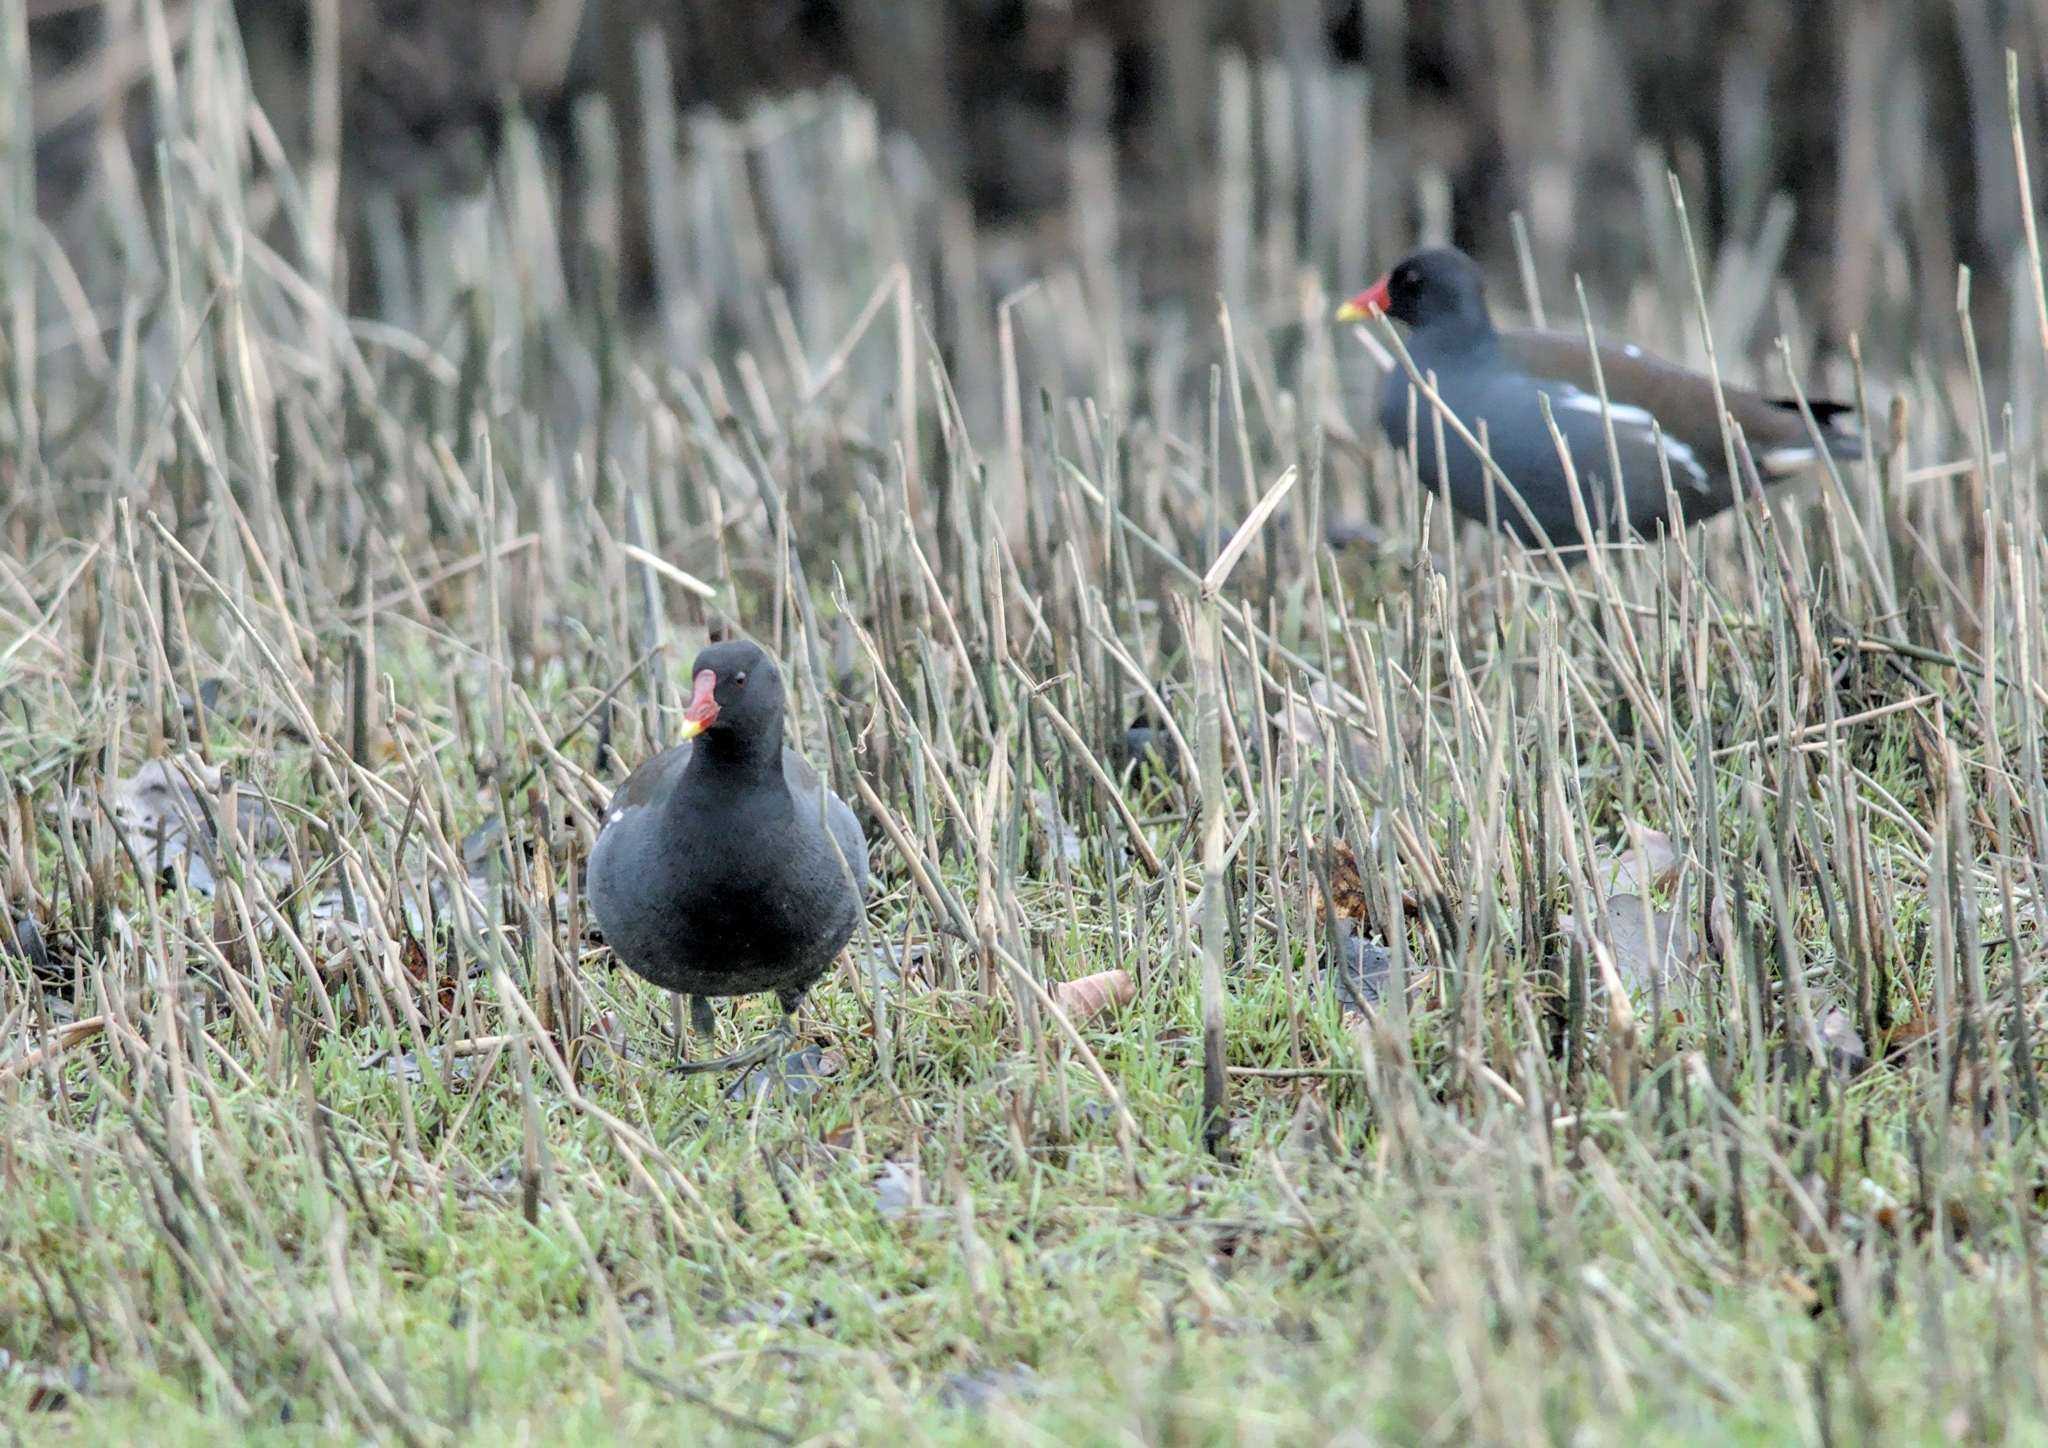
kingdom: Animalia
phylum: Chordata
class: Aves
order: Gruiformes
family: Rallidae
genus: Gallinula
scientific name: Gallinula chloropus
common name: Common moorhen
